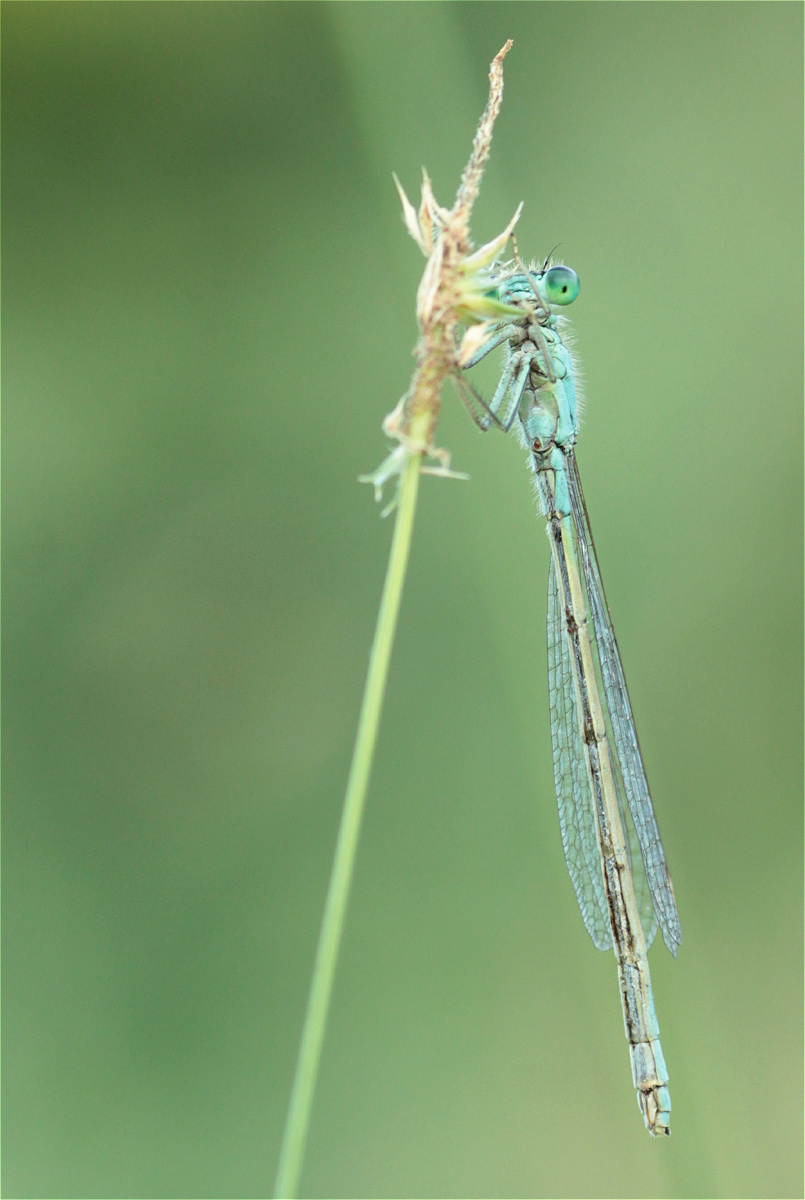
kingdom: Animalia
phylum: Arthropoda
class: Insecta
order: Odonata
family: Coenagrionidae
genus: Ischnura
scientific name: Ischnura elegans
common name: Blue-tailed damselfly
